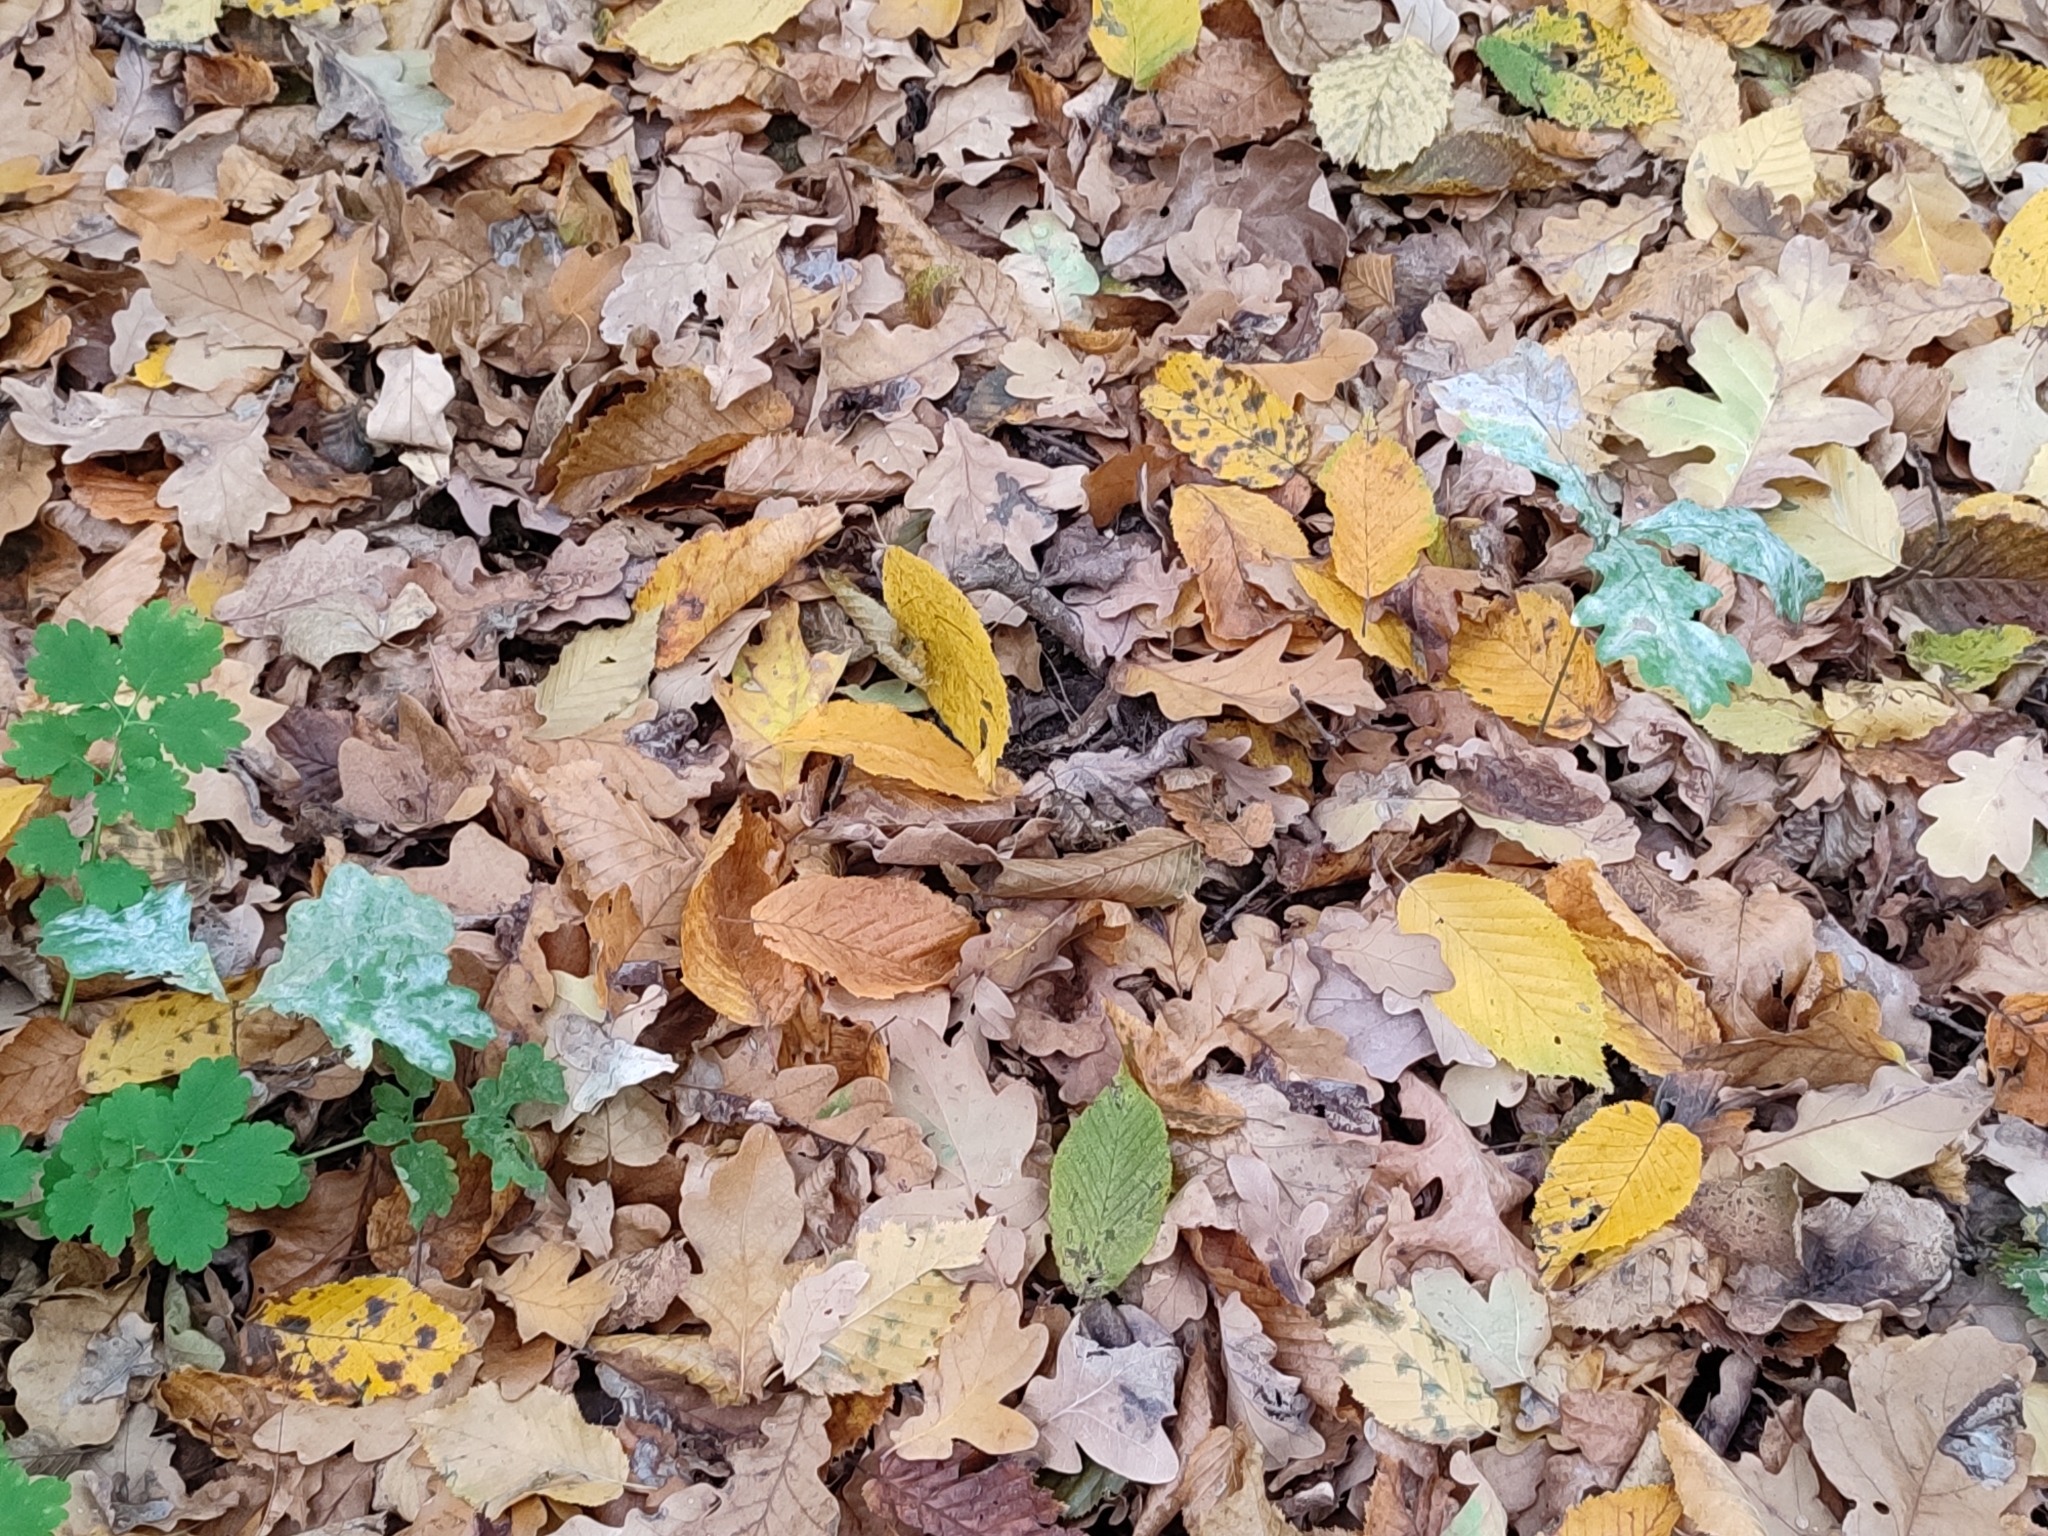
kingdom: Plantae
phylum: Tracheophyta
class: Magnoliopsida
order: Fagales
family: Fagaceae
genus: Quercus
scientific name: Quercus robur
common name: Pedunculate oak
